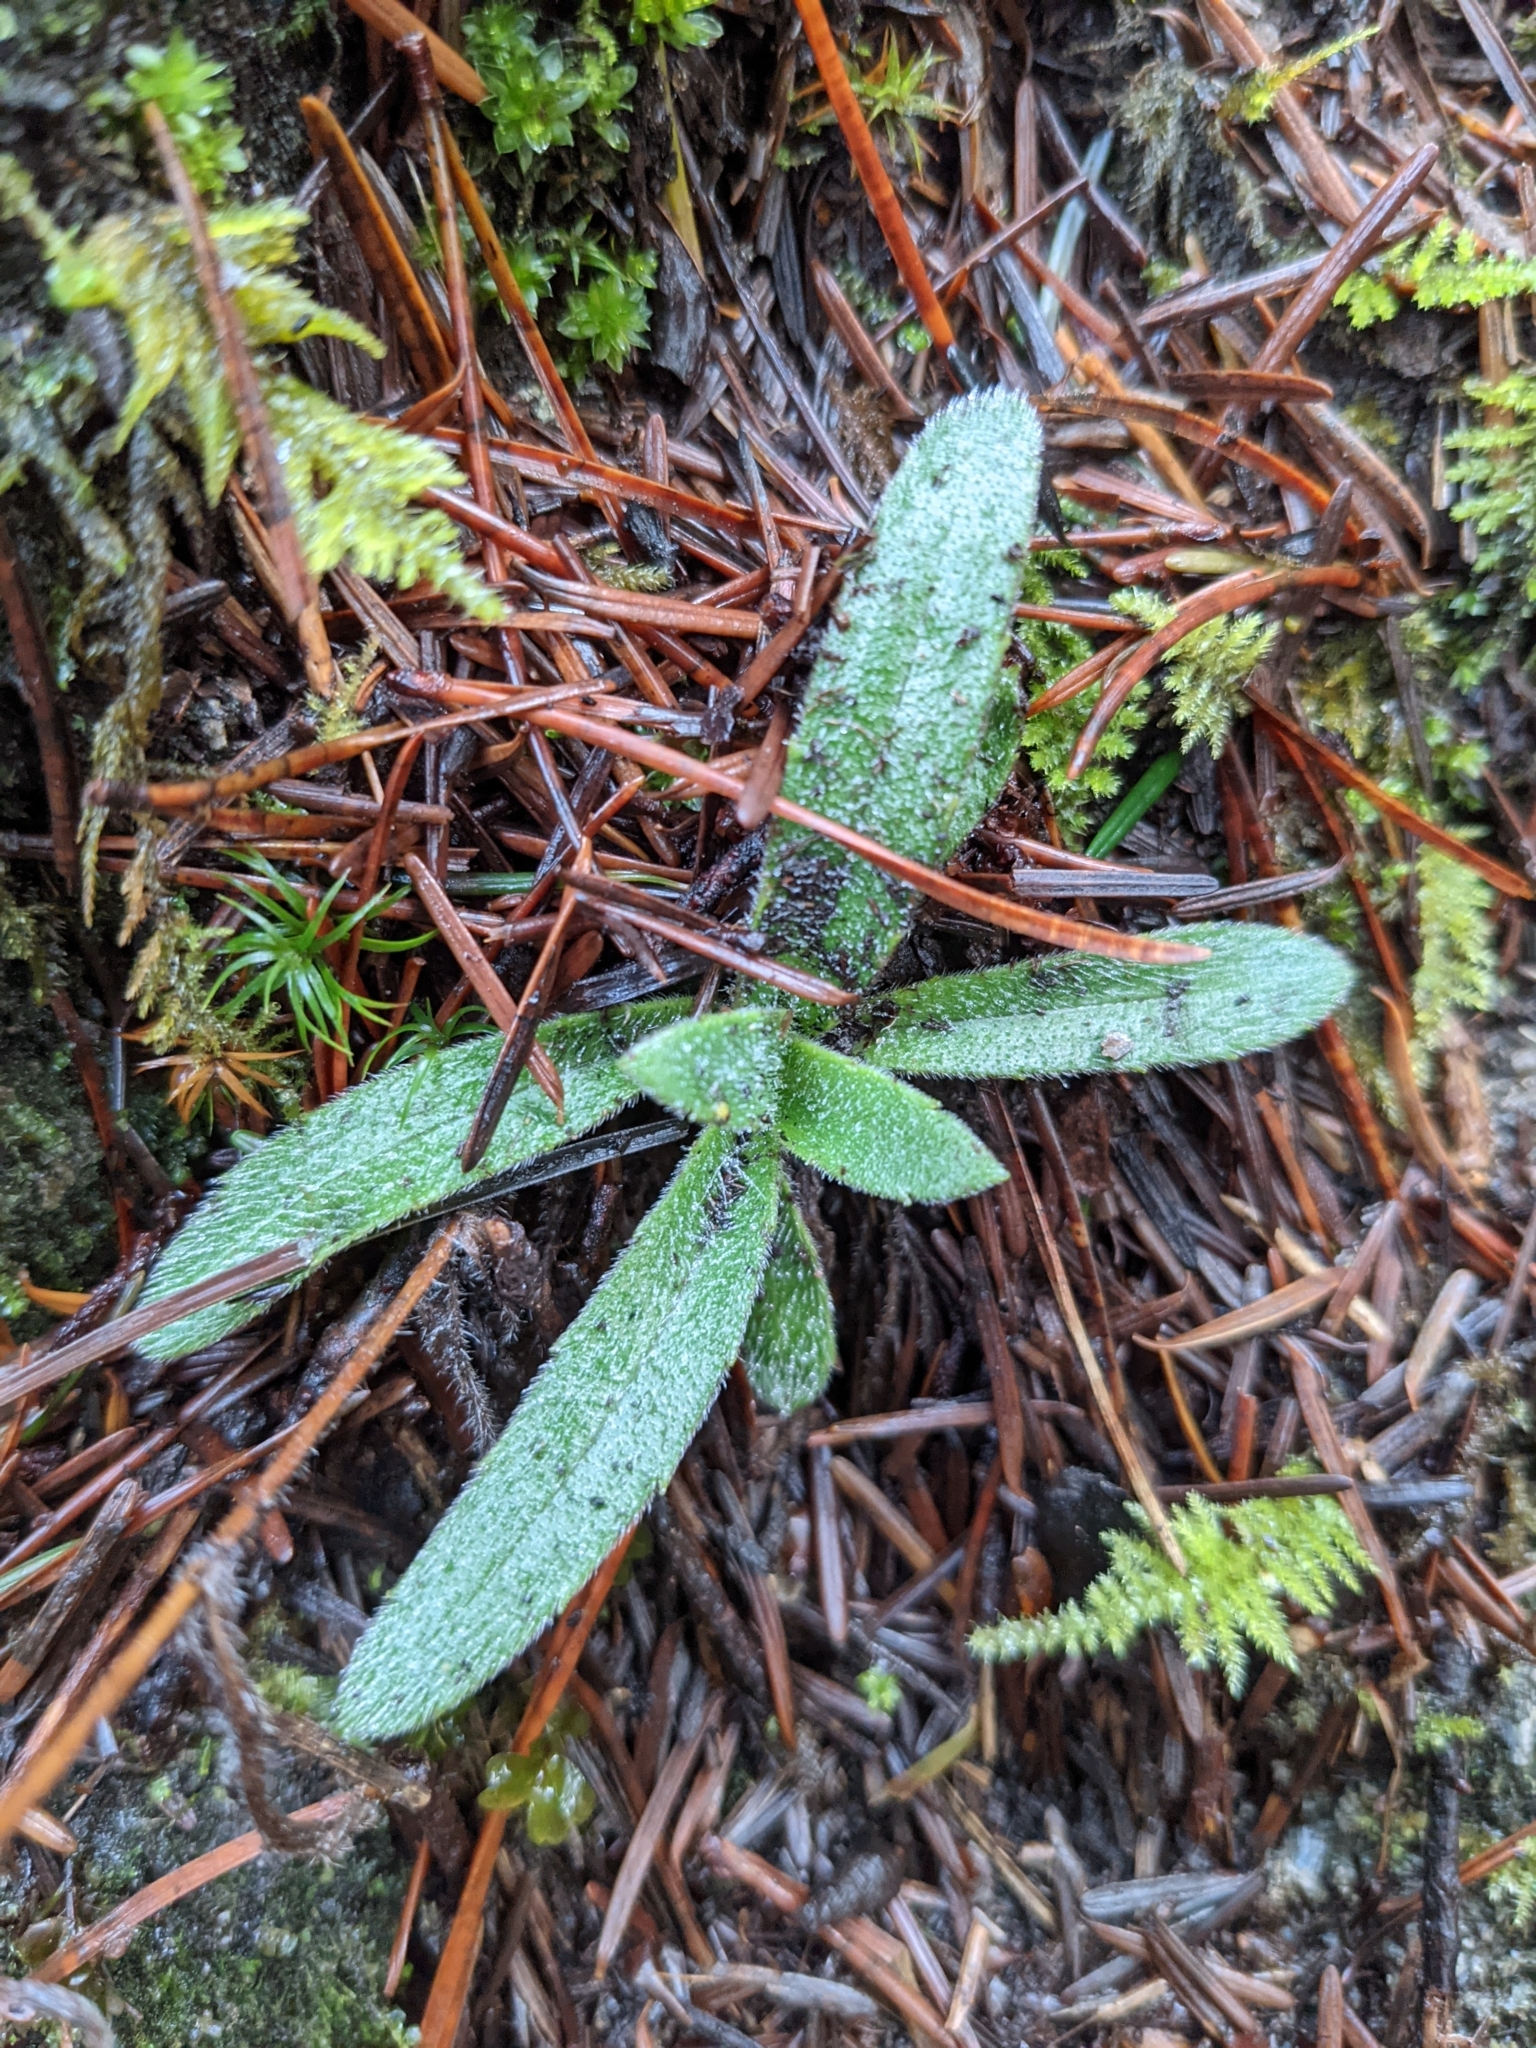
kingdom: Plantae
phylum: Tracheophyta
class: Magnoliopsida
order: Asterales
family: Asteraceae
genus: Anisocarpus
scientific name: Anisocarpus madioides
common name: Woodland madia
